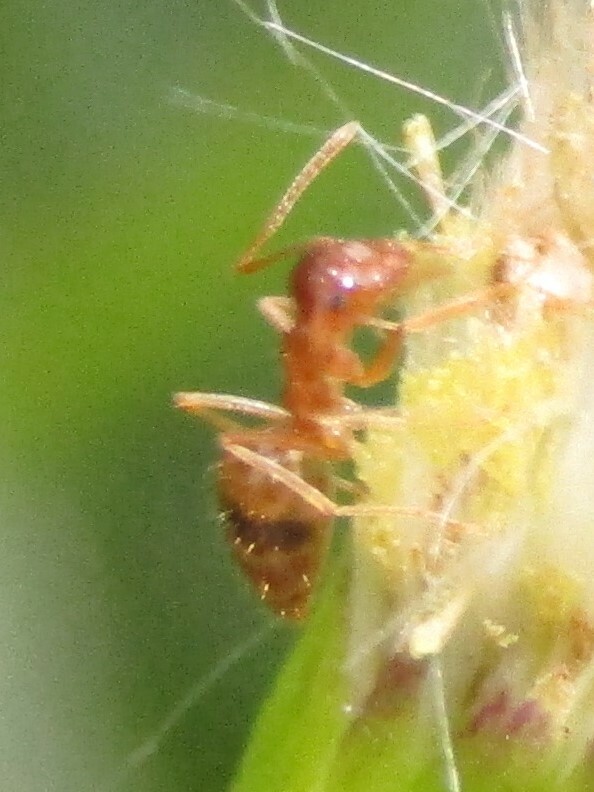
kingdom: Animalia
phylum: Arthropoda
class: Insecta
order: Hymenoptera
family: Formicidae
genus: Prenolepis
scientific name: Prenolepis imparis
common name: Small honey ant
